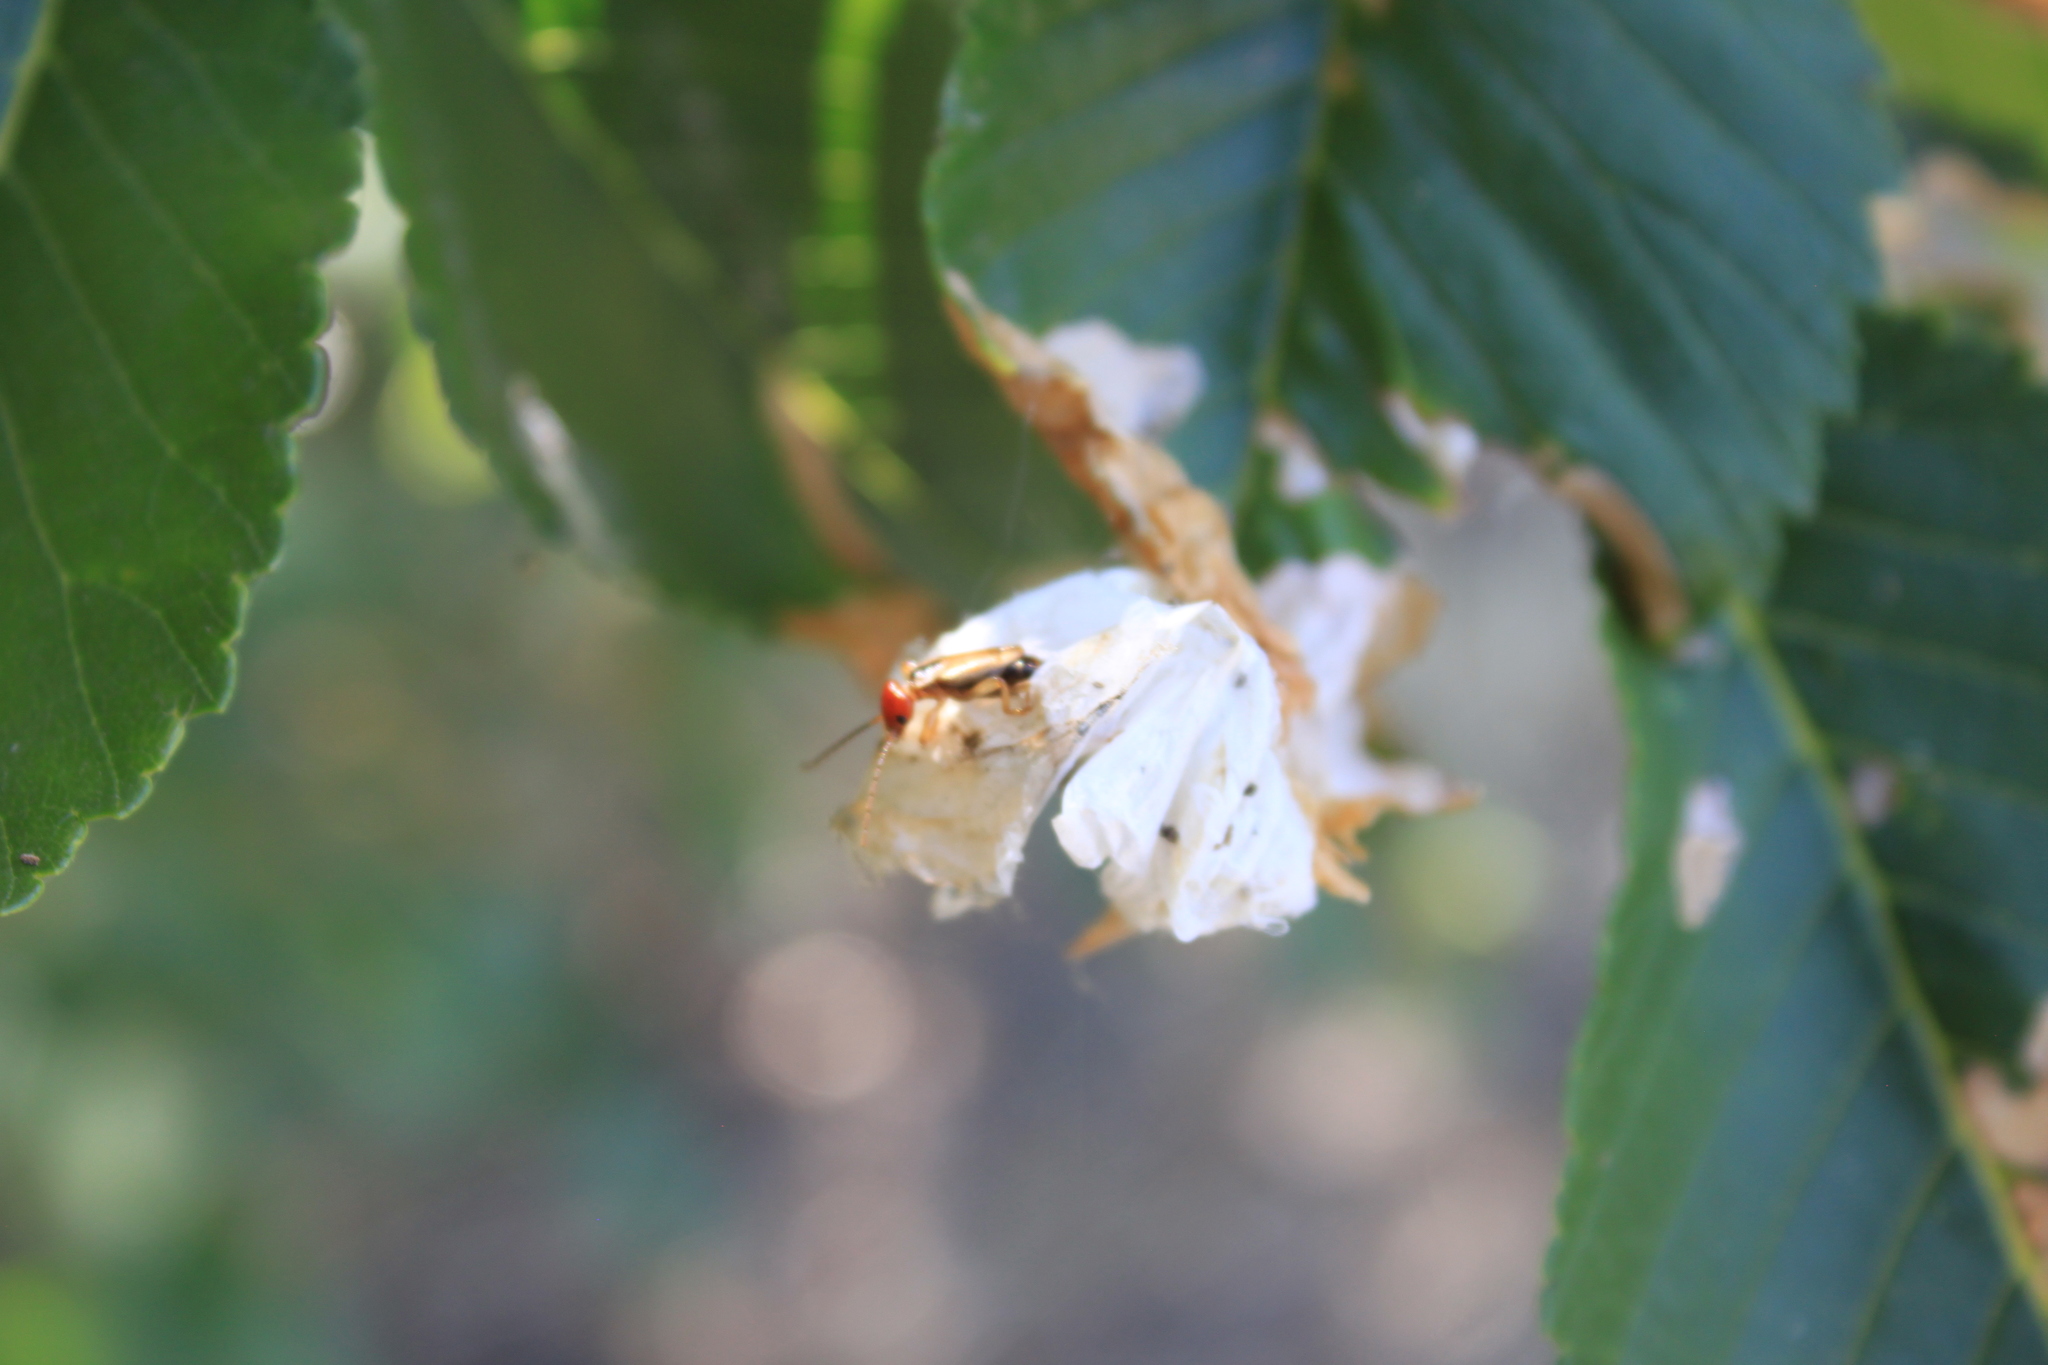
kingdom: Animalia
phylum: Arthropoda
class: Insecta
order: Dermaptera
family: Forficulidae
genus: Forficula
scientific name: Forficula
